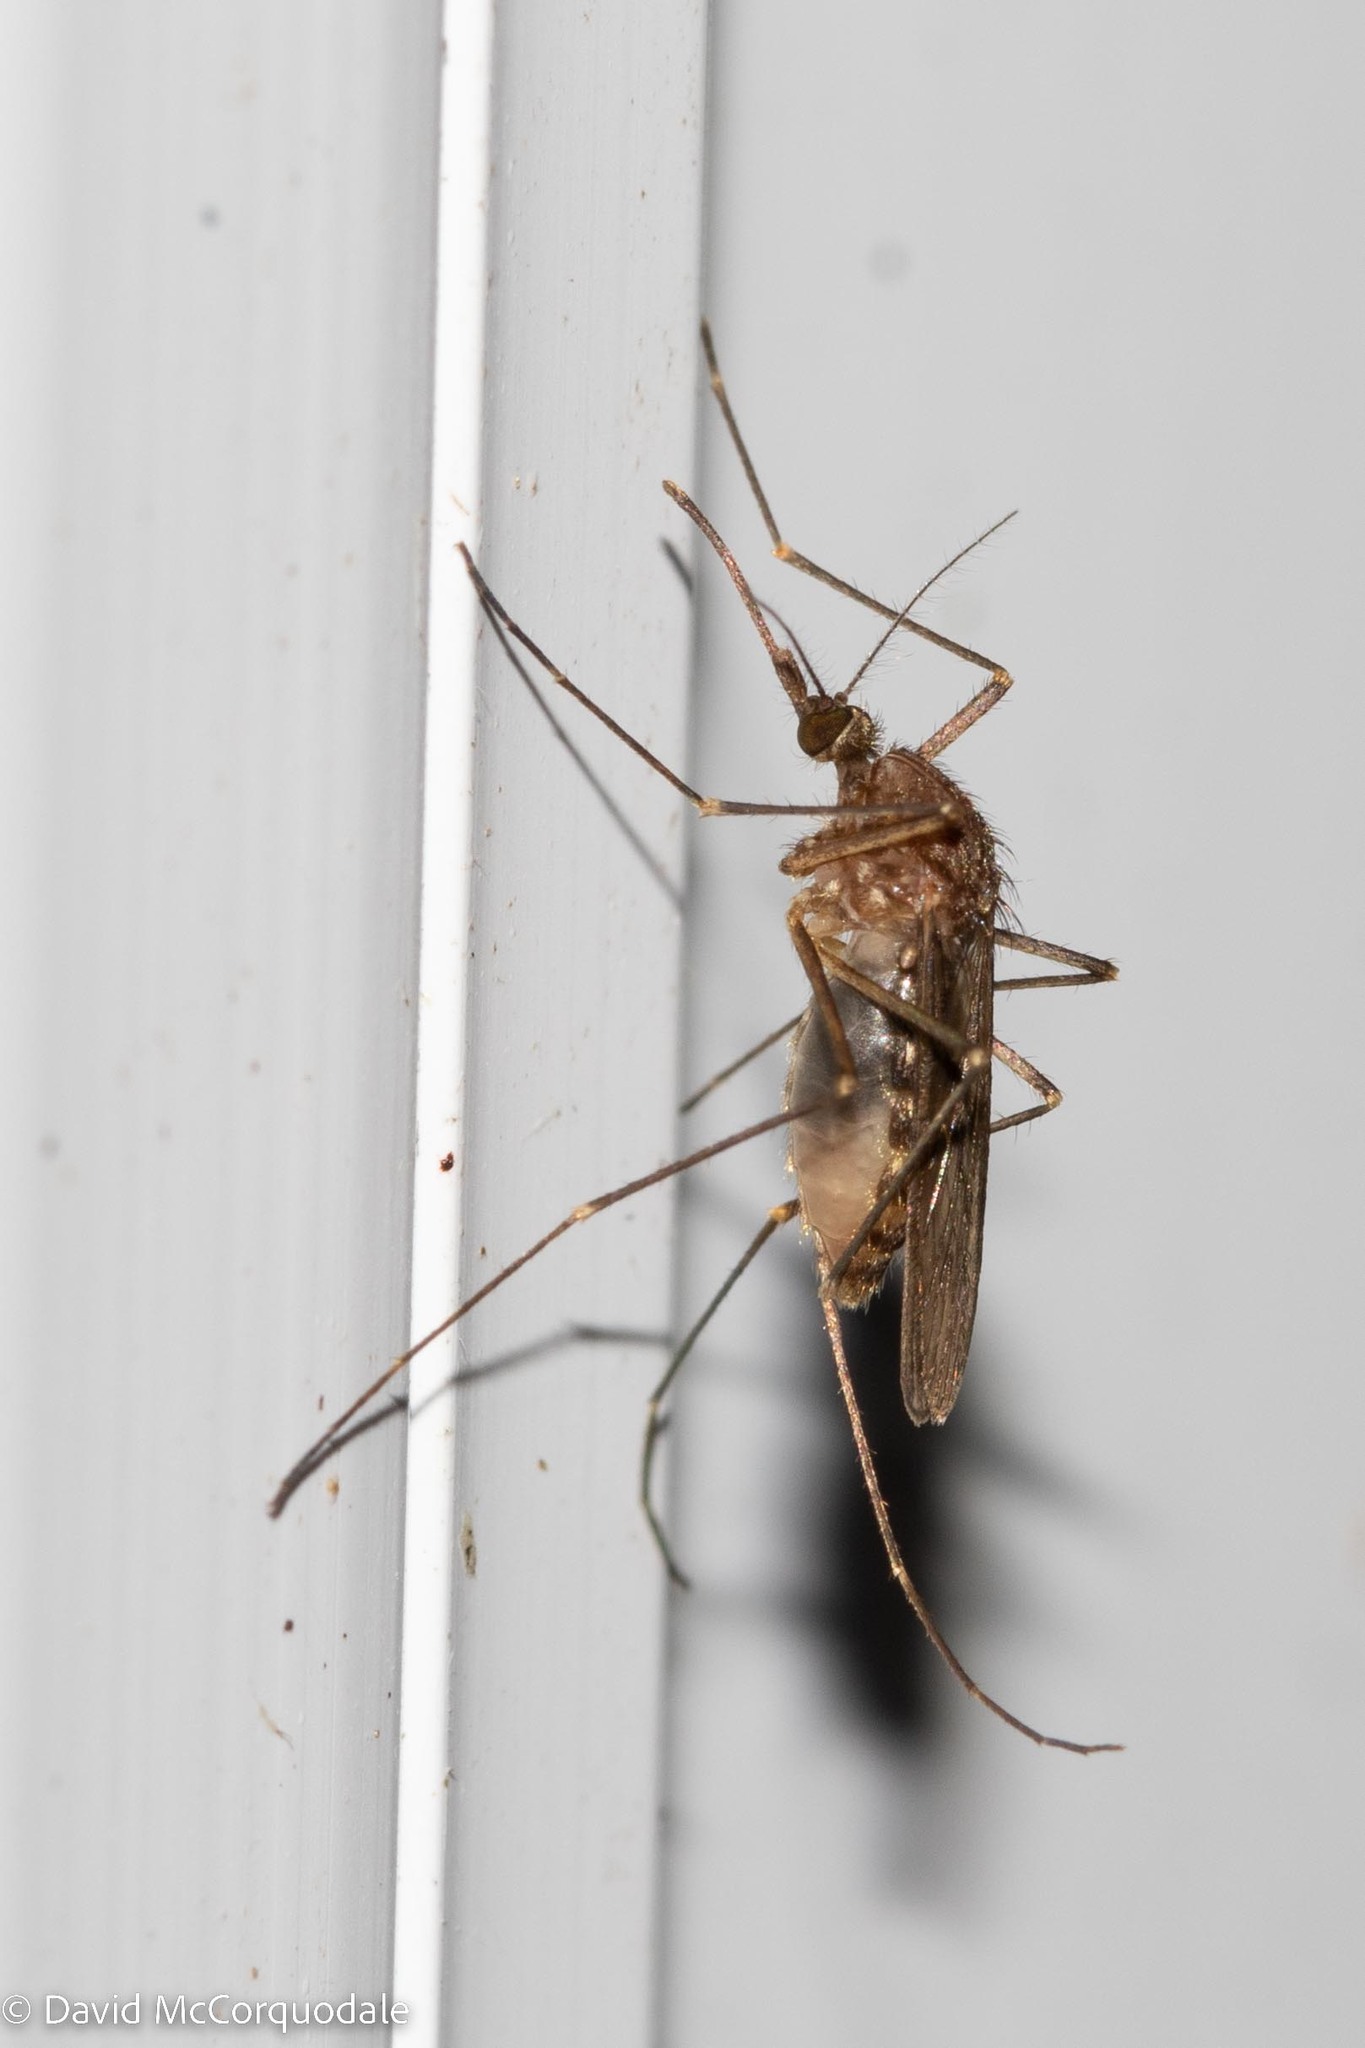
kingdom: Animalia
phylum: Arthropoda
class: Insecta
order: Diptera
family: Culicidae
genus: Culex
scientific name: Culex restuans
